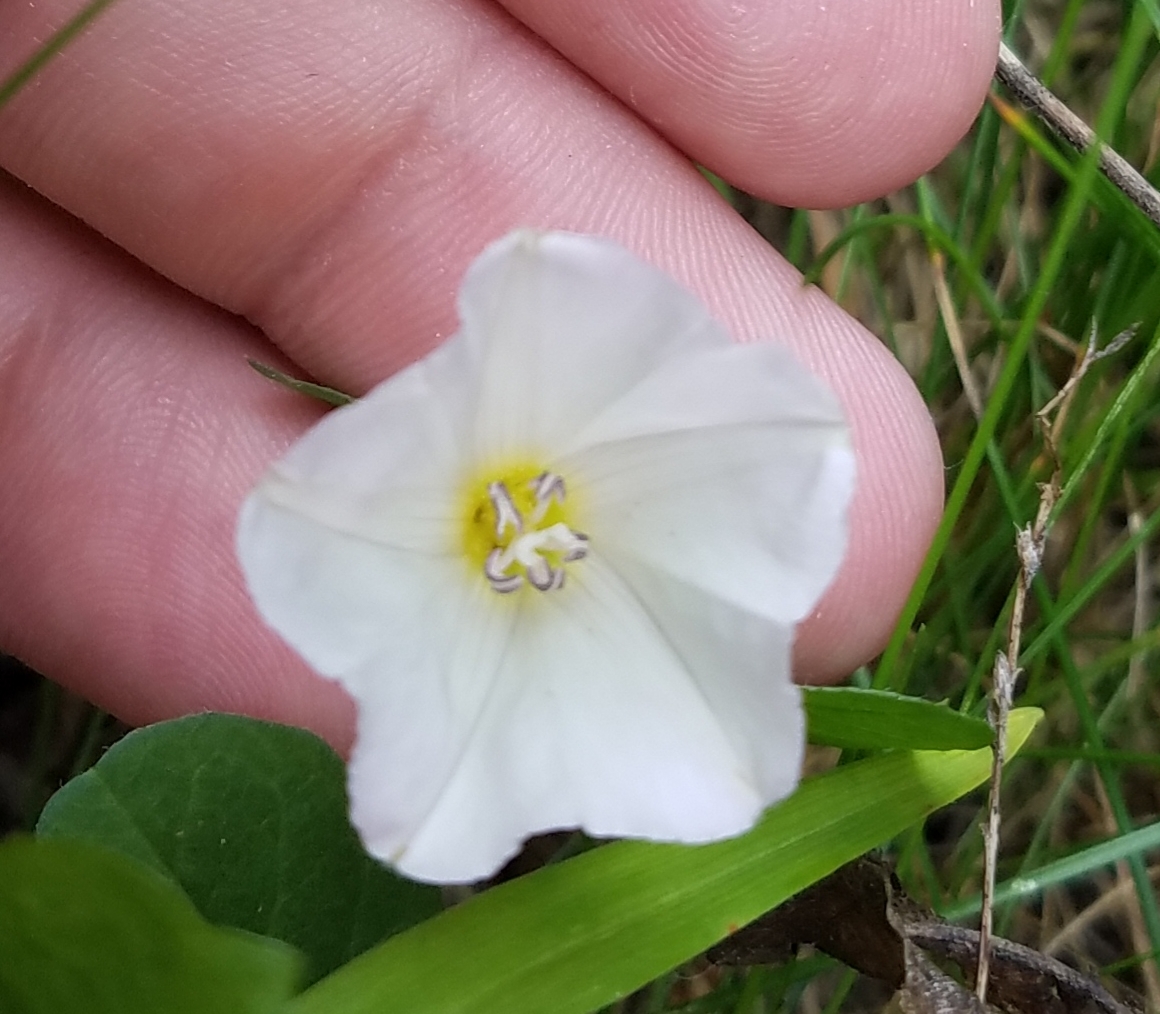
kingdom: Plantae
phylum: Tracheophyta
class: Magnoliopsida
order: Solanales
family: Convolvulaceae
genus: Convolvulus
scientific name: Convolvulus arvensis
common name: Field bindweed
